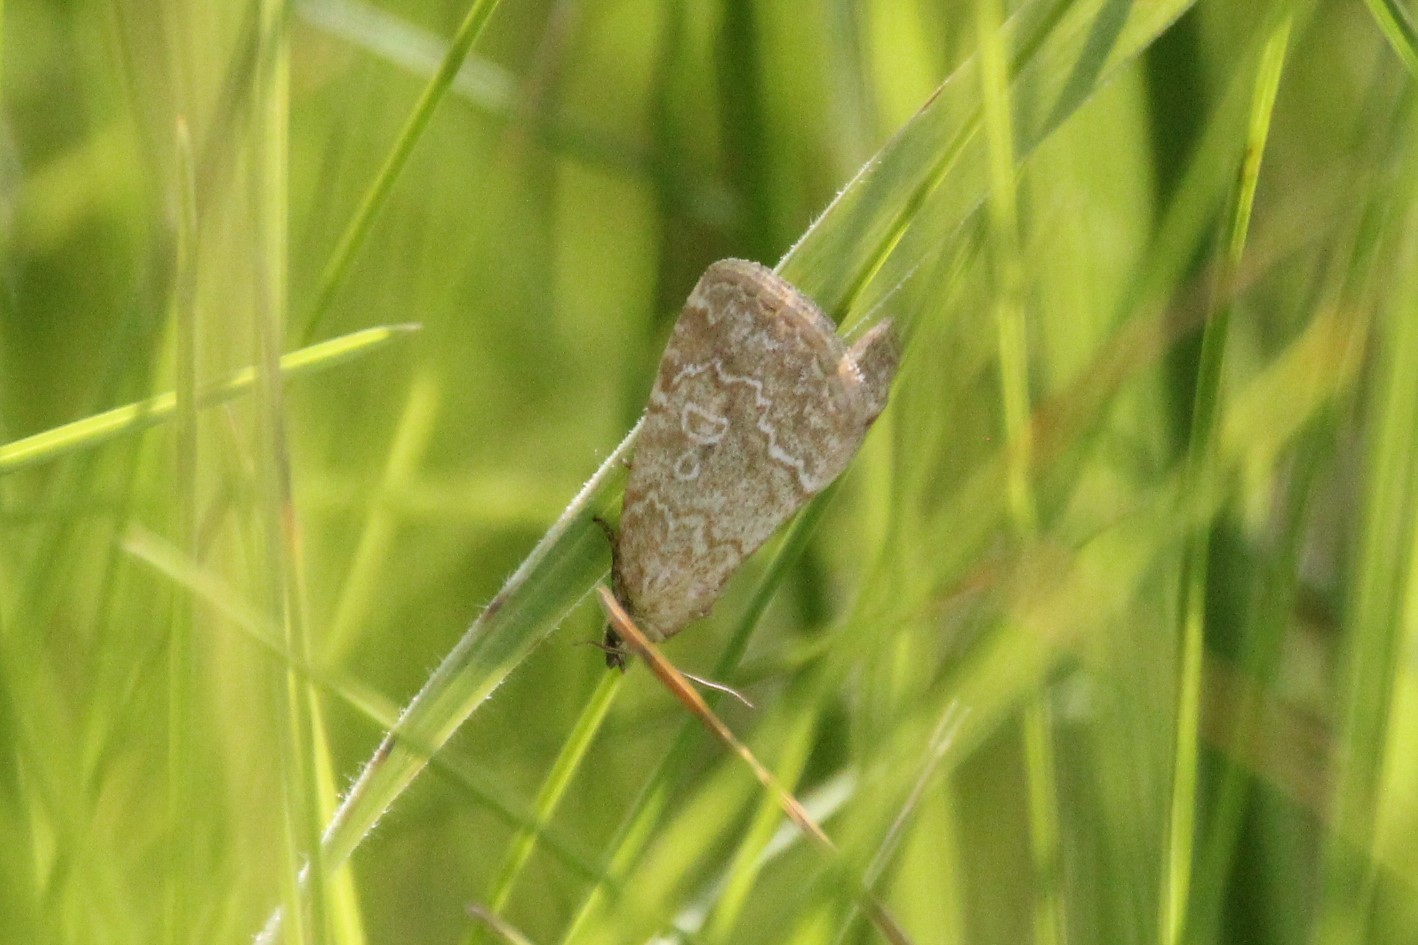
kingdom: Animalia
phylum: Arthropoda
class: Insecta
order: Lepidoptera
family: Noctuidae
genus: Protodeltote
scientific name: Protodeltote albidula
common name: Pale glyph
